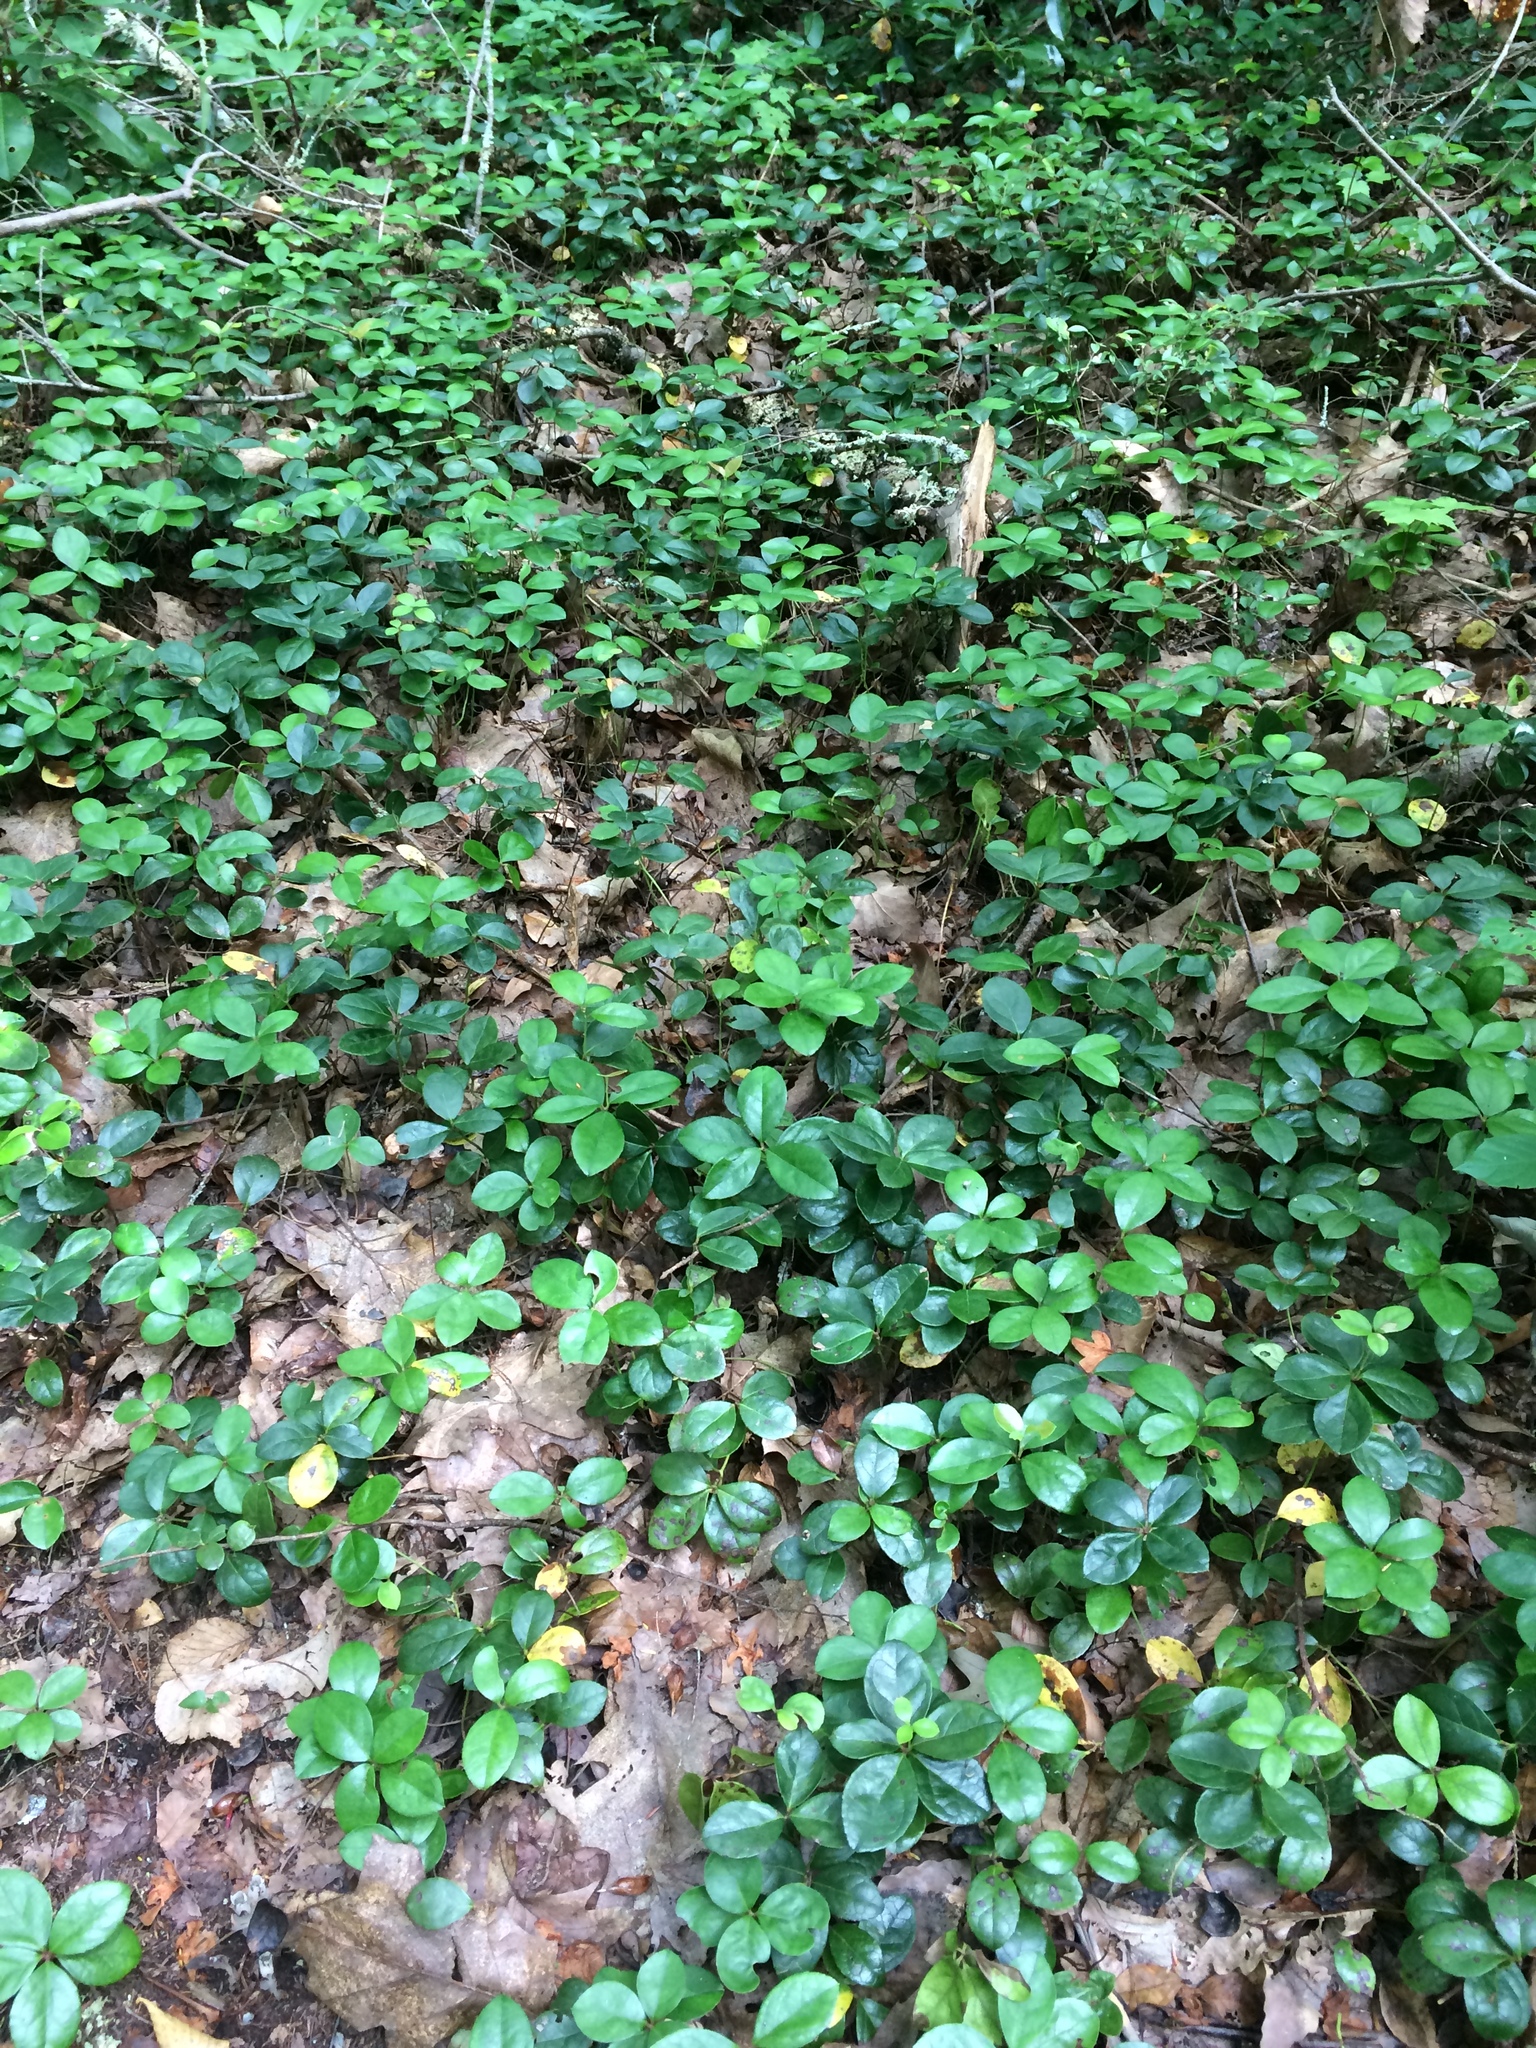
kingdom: Plantae
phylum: Tracheophyta
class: Magnoliopsida
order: Ericales
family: Ericaceae
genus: Gaultheria
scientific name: Gaultheria procumbens
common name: Checkerberry
